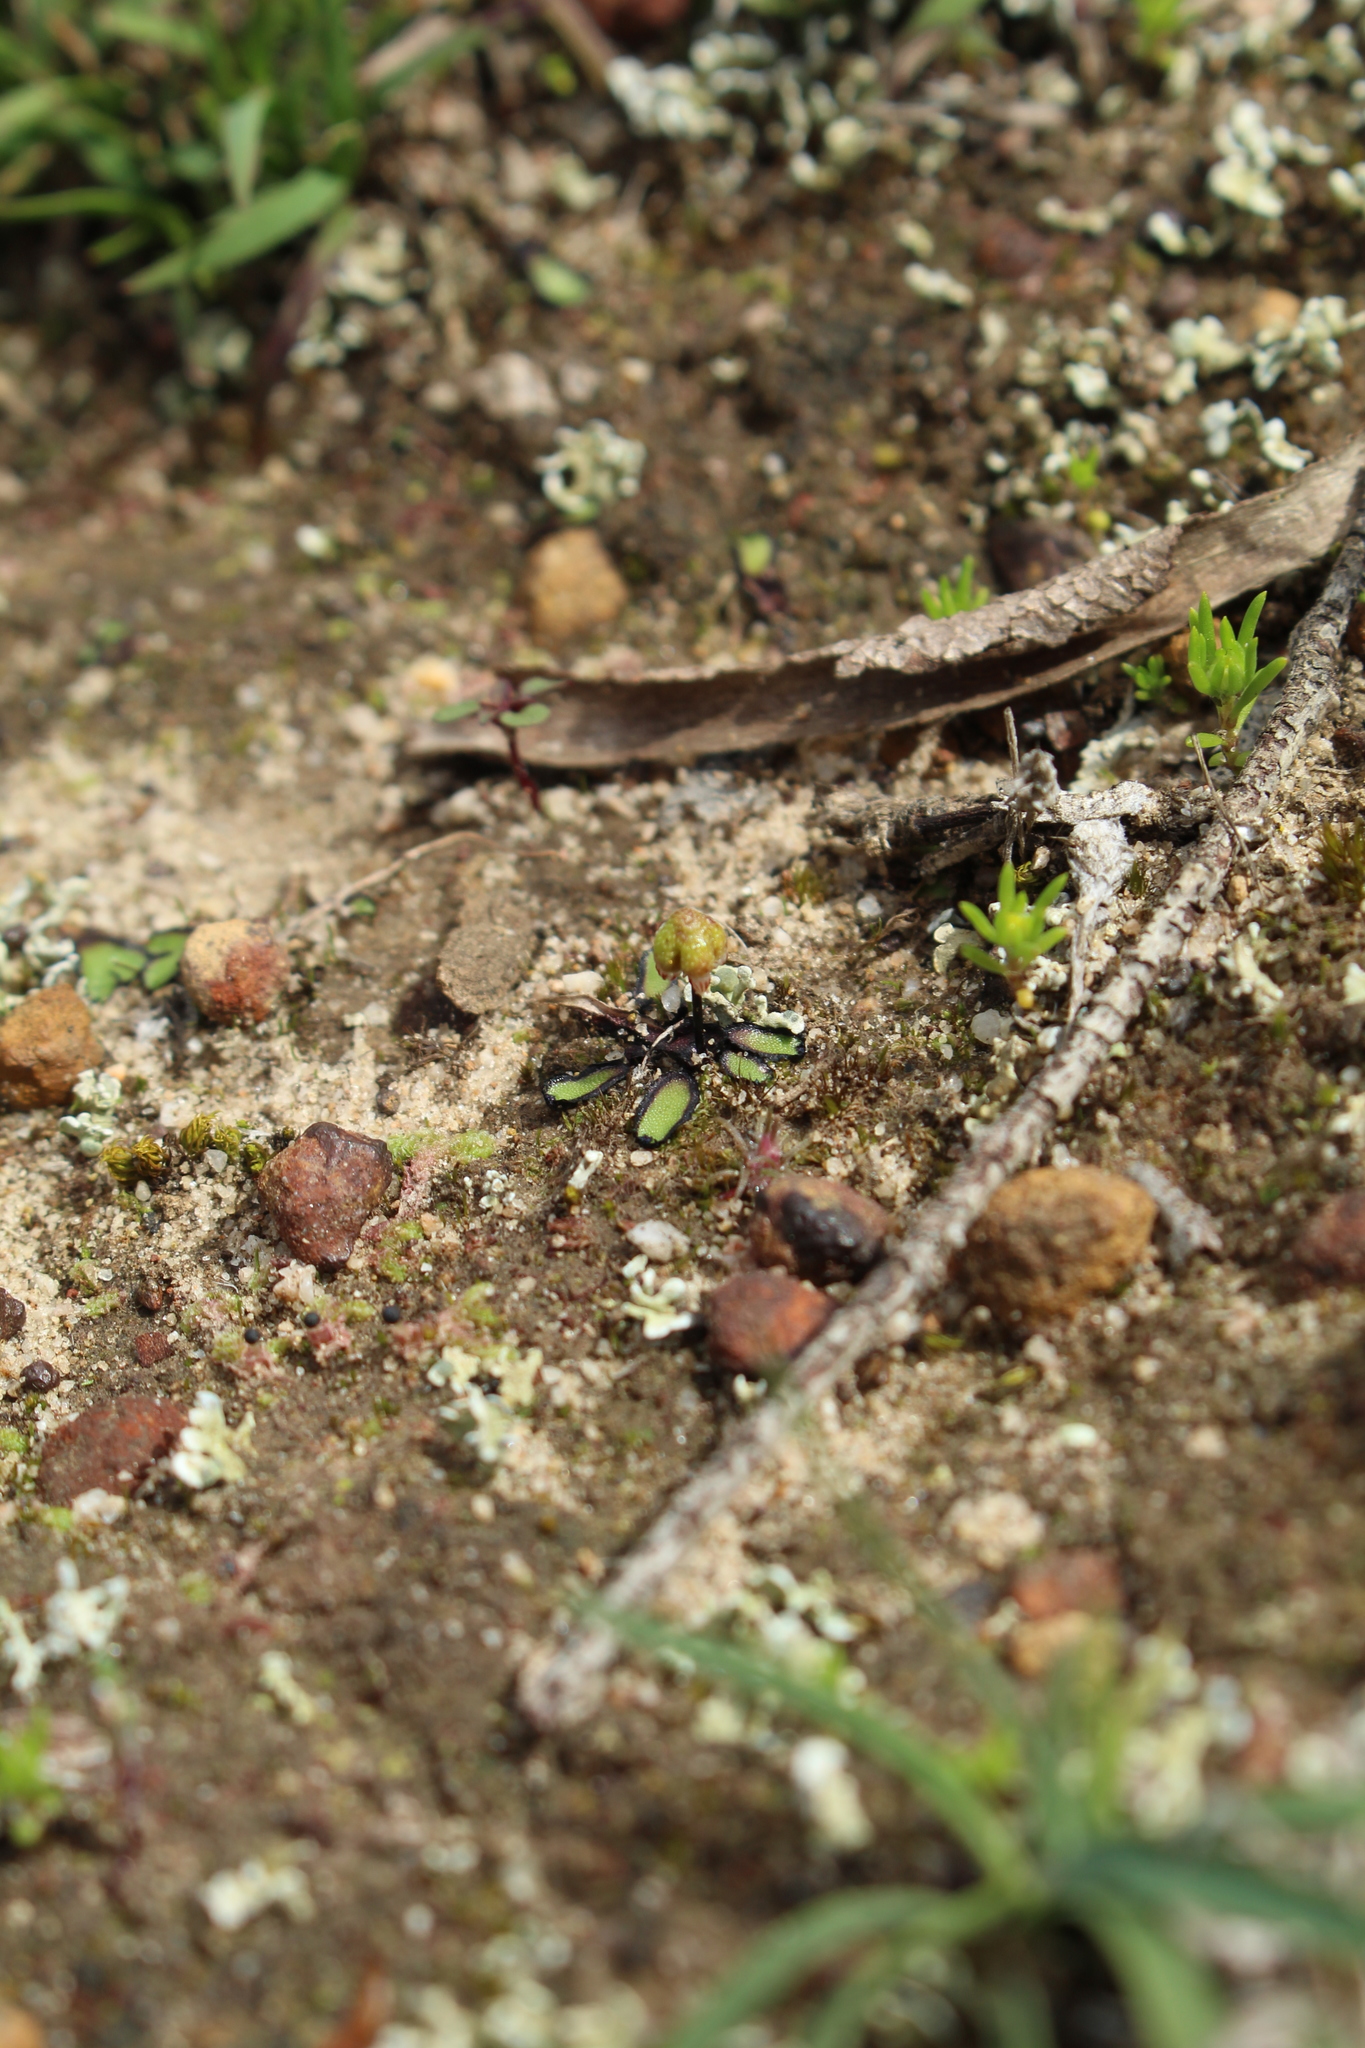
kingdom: Plantae
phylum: Marchantiophyta
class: Marchantiopsida
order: Marchantiales
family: Aytoniaceae
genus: Asterella
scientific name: Asterella drummondii
